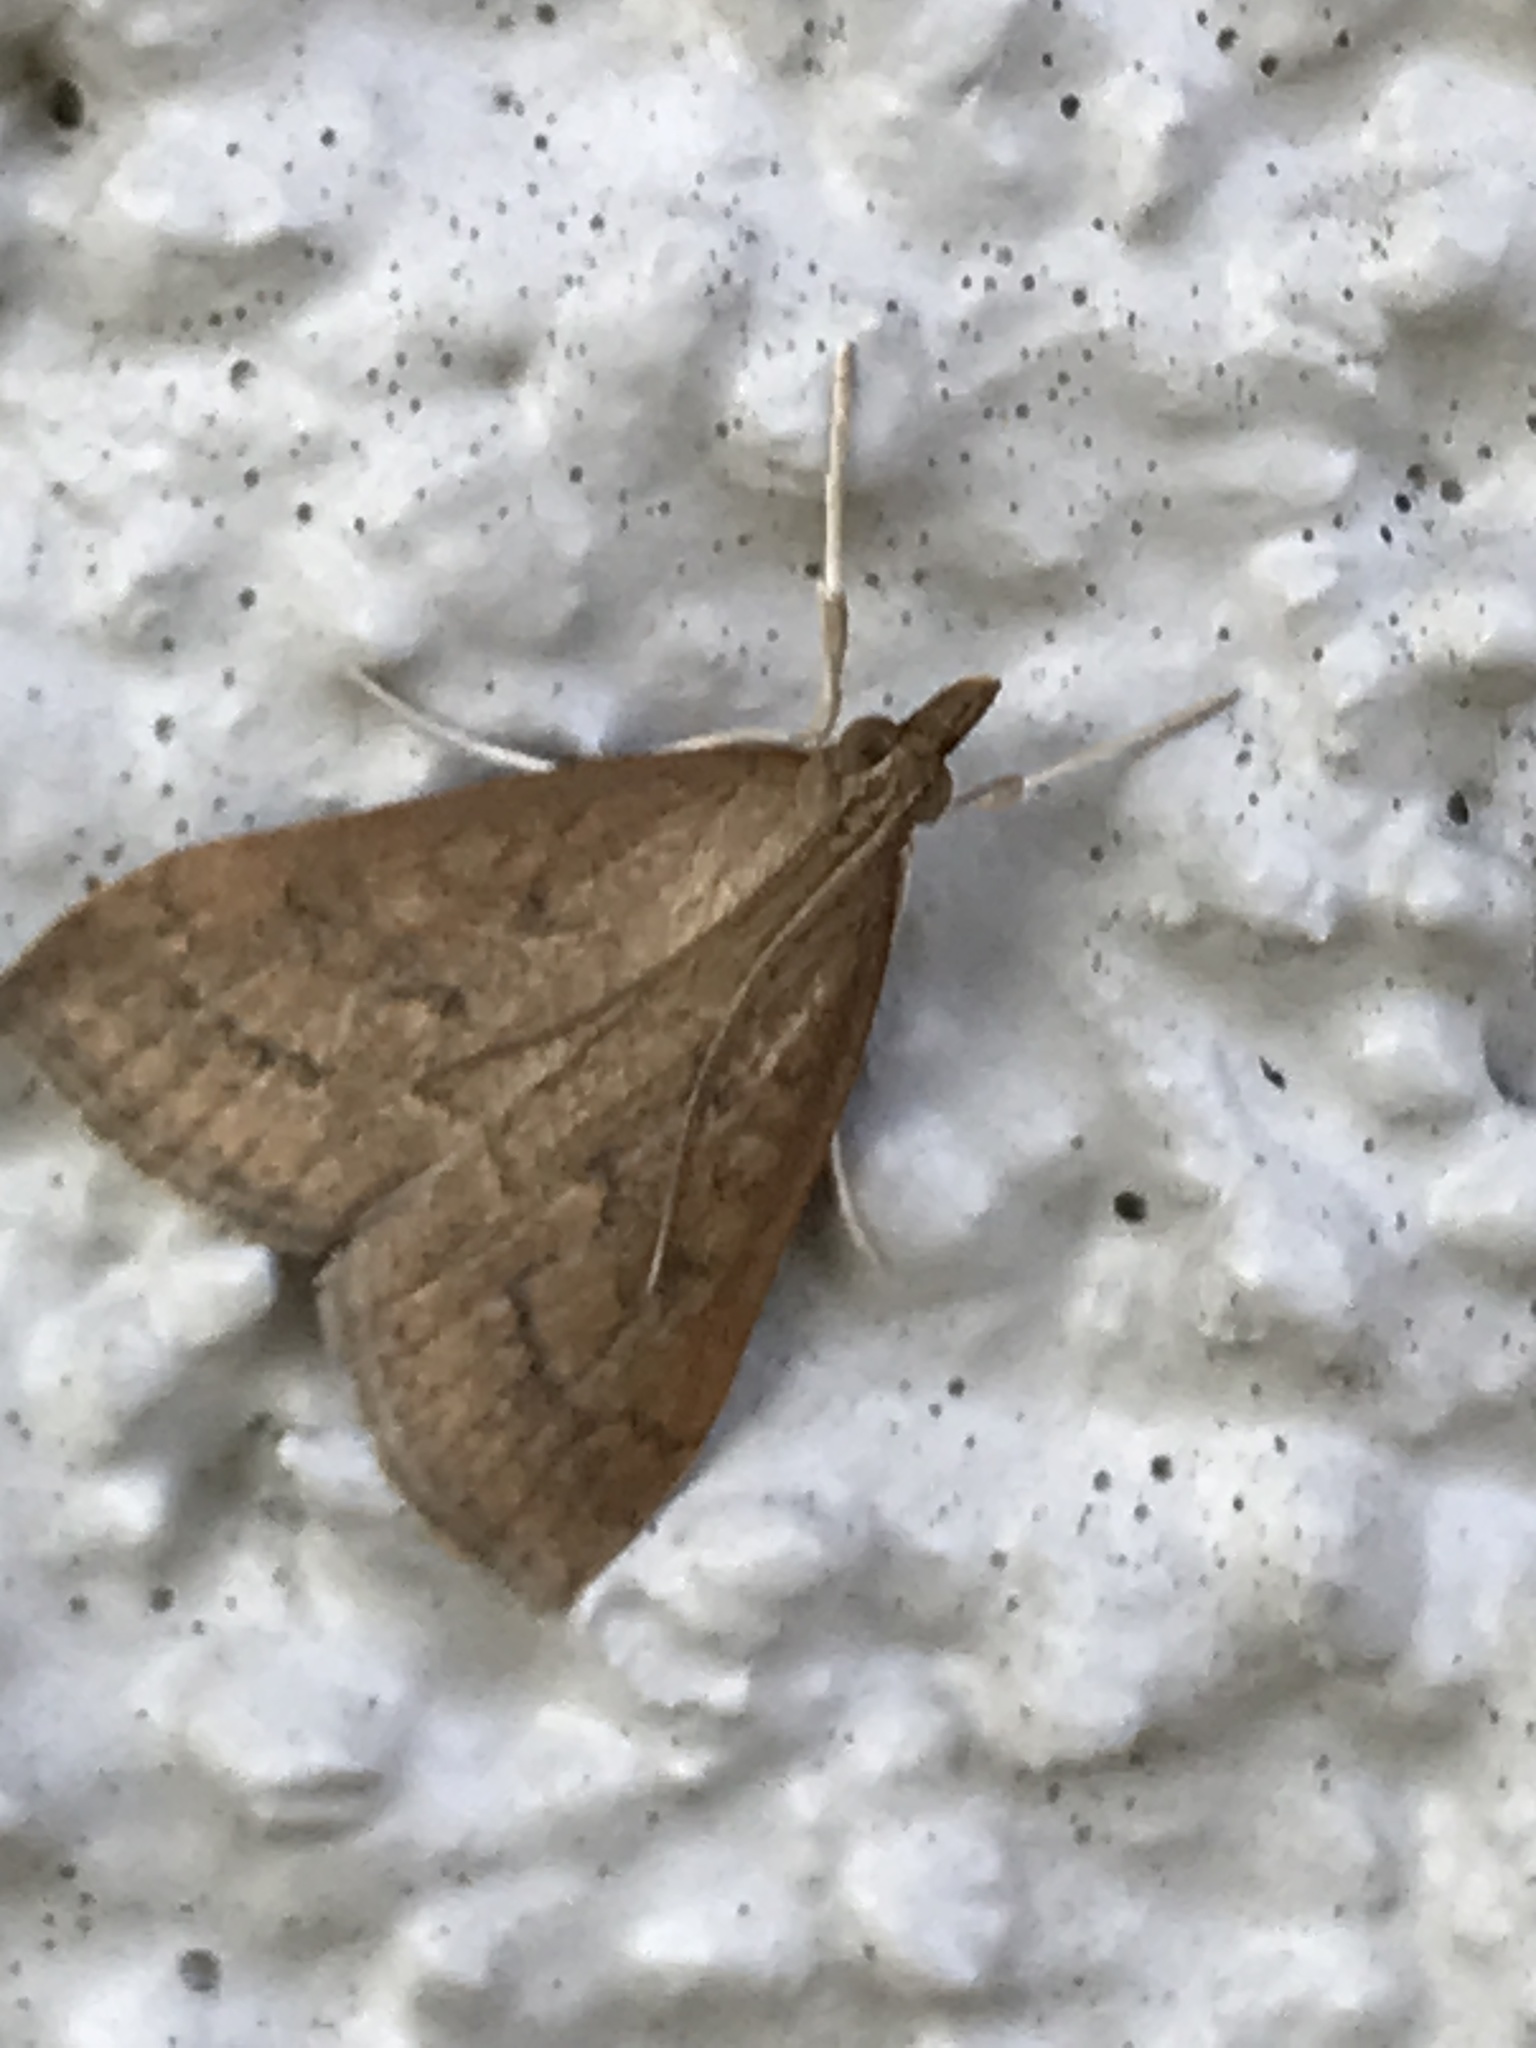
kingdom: Animalia
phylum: Arthropoda
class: Insecta
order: Lepidoptera
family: Crambidae
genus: Udea
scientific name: Udea rubigalis
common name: Celery leaftier moth
